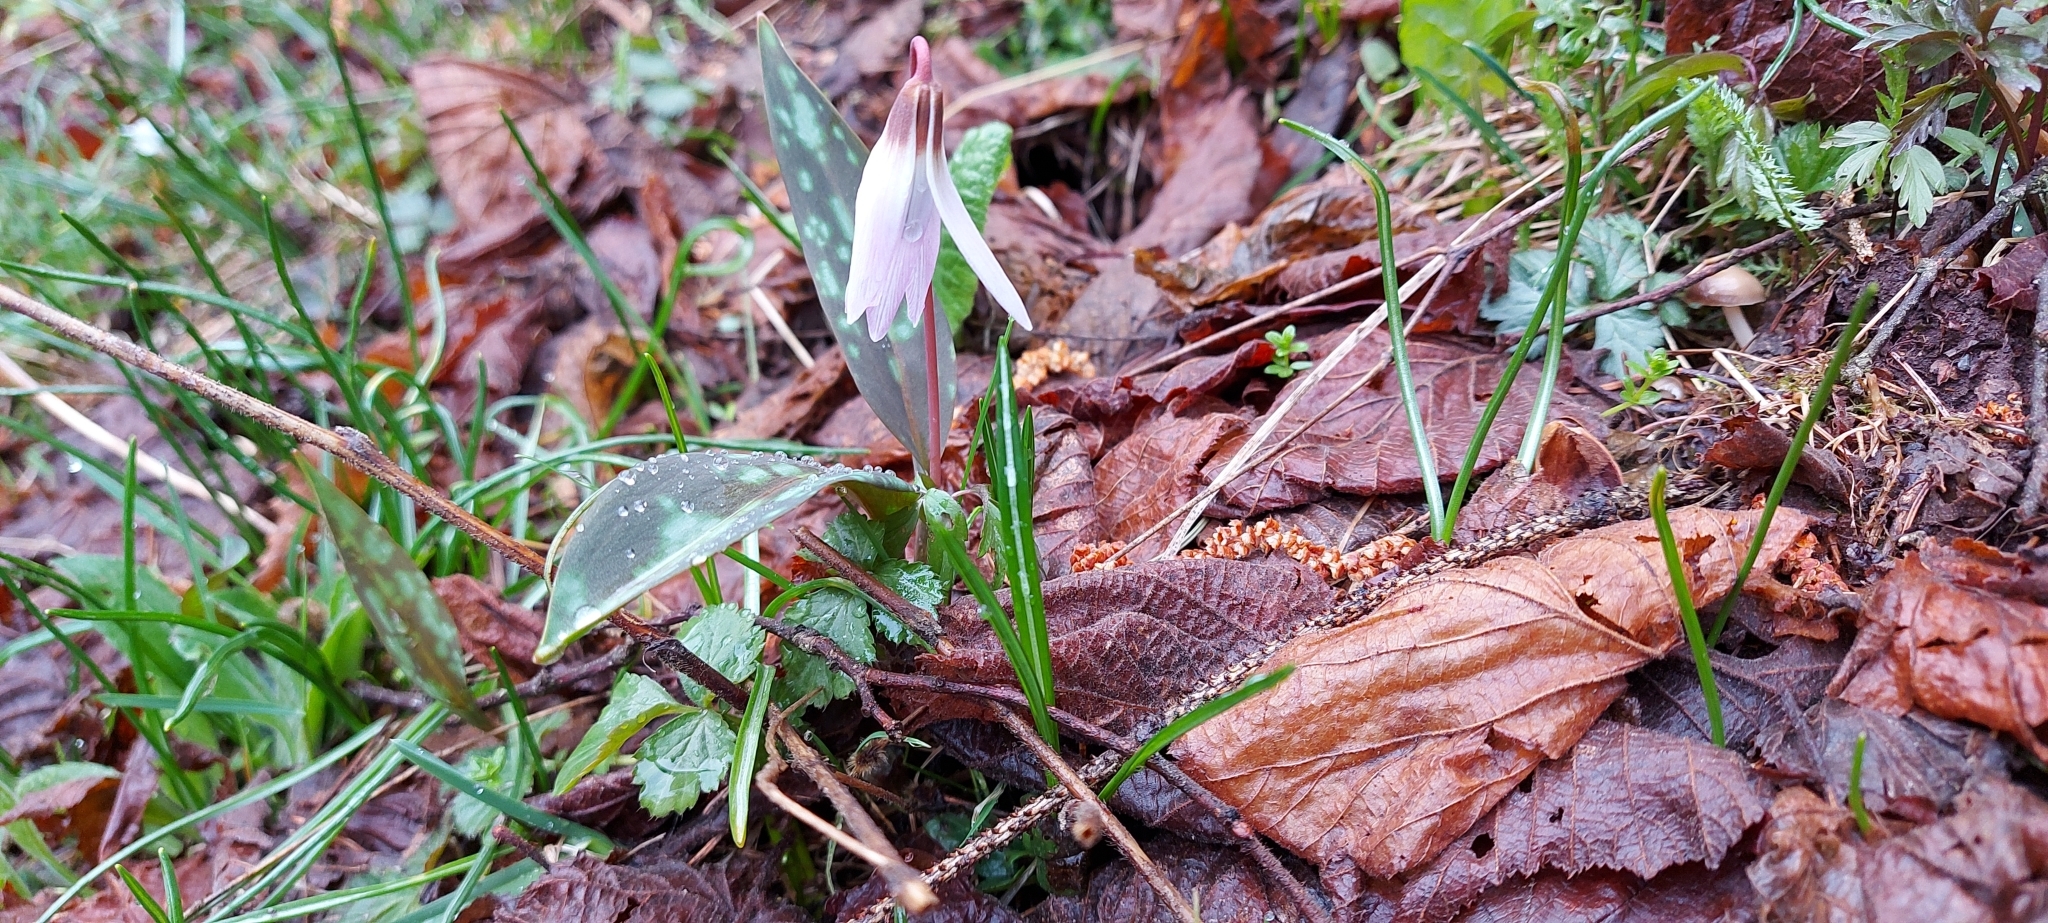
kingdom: Plantae
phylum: Tracheophyta
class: Liliopsida
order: Liliales
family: Liliaceae
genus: Erythronium
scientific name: Erythronium dens-canis
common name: Dog's-tooth-violet
